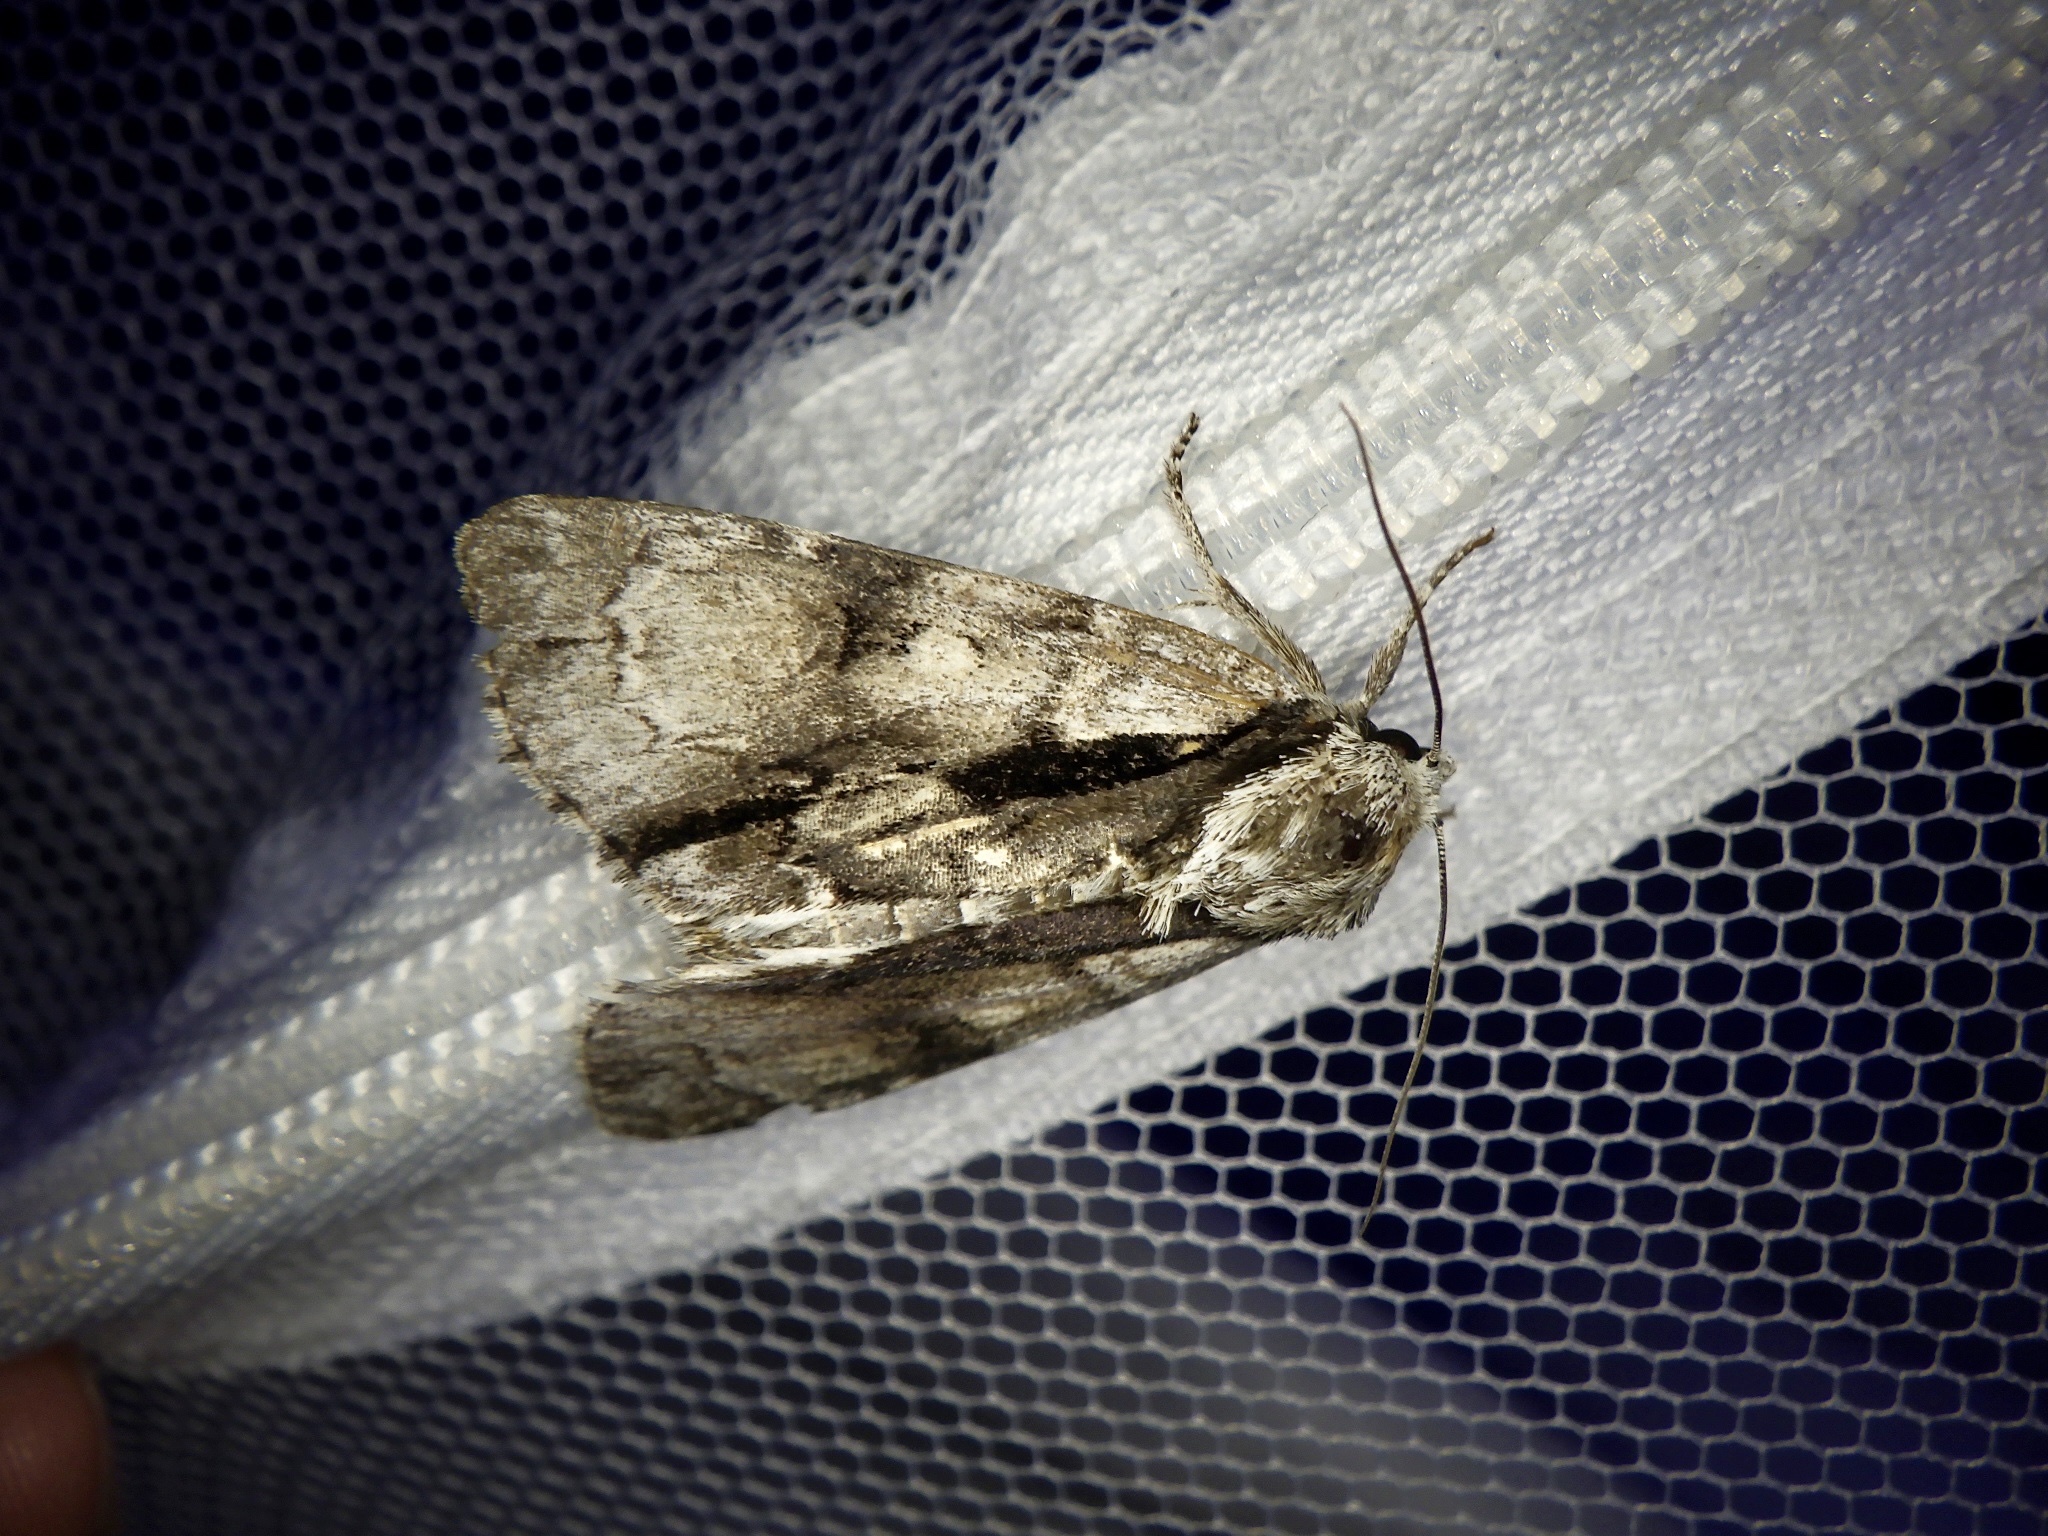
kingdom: Animalia
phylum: Arthropoda
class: Insecta
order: Lepidoptera
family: Noctuidae
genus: Acronicta
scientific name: Acronicta alni
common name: Alder moth
